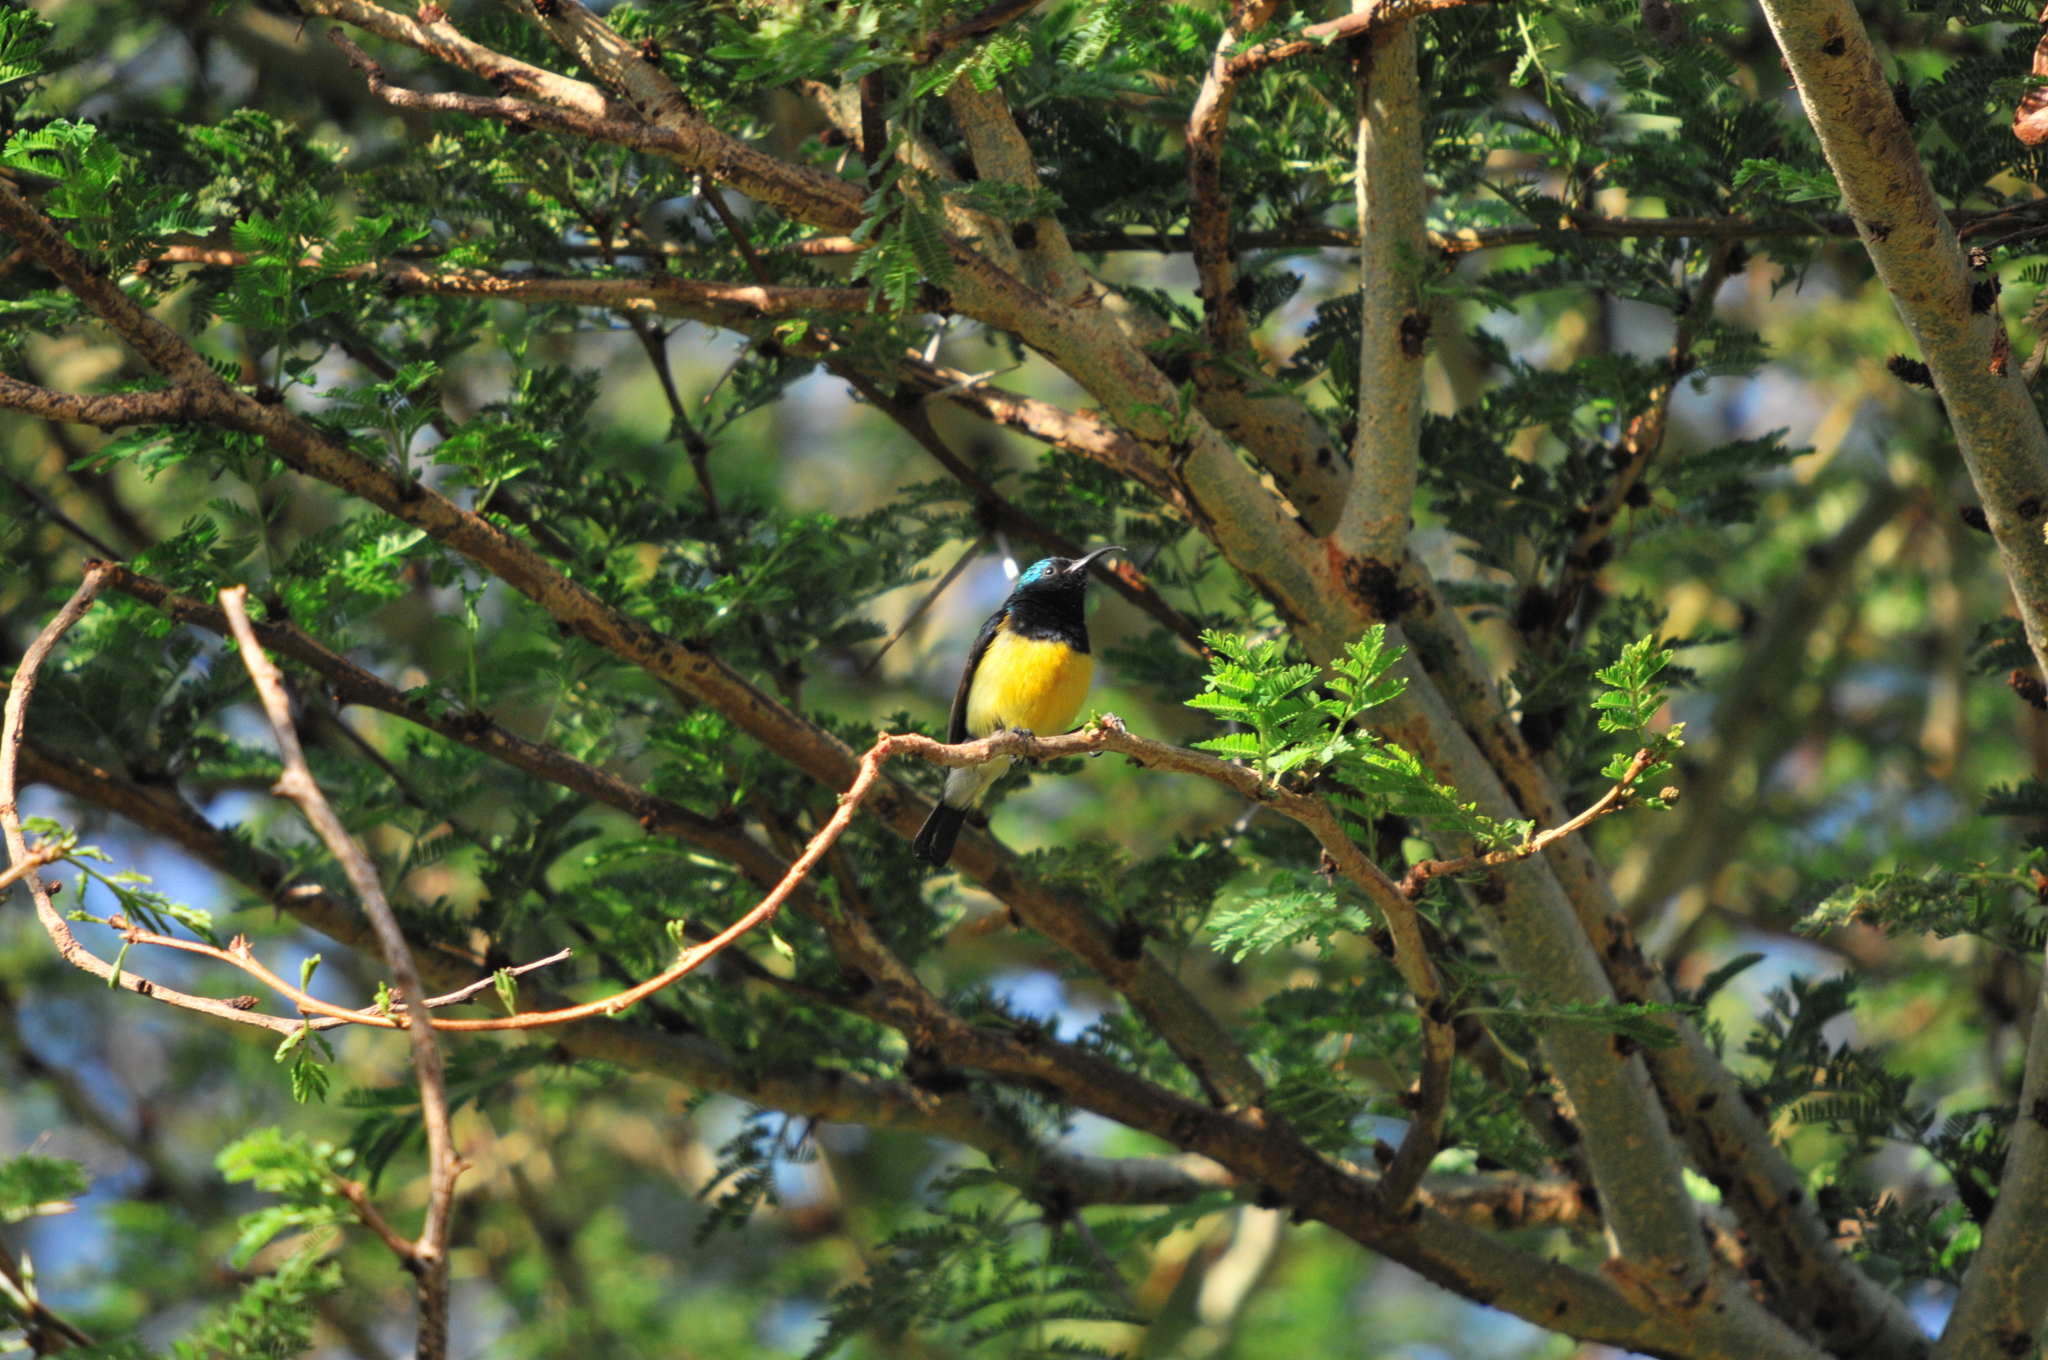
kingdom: Animalia
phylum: Chordata
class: Aves
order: Passeriformes
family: Nectariniidae
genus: Cinnyris
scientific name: Cinnyris venustus
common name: Variable sunbird
